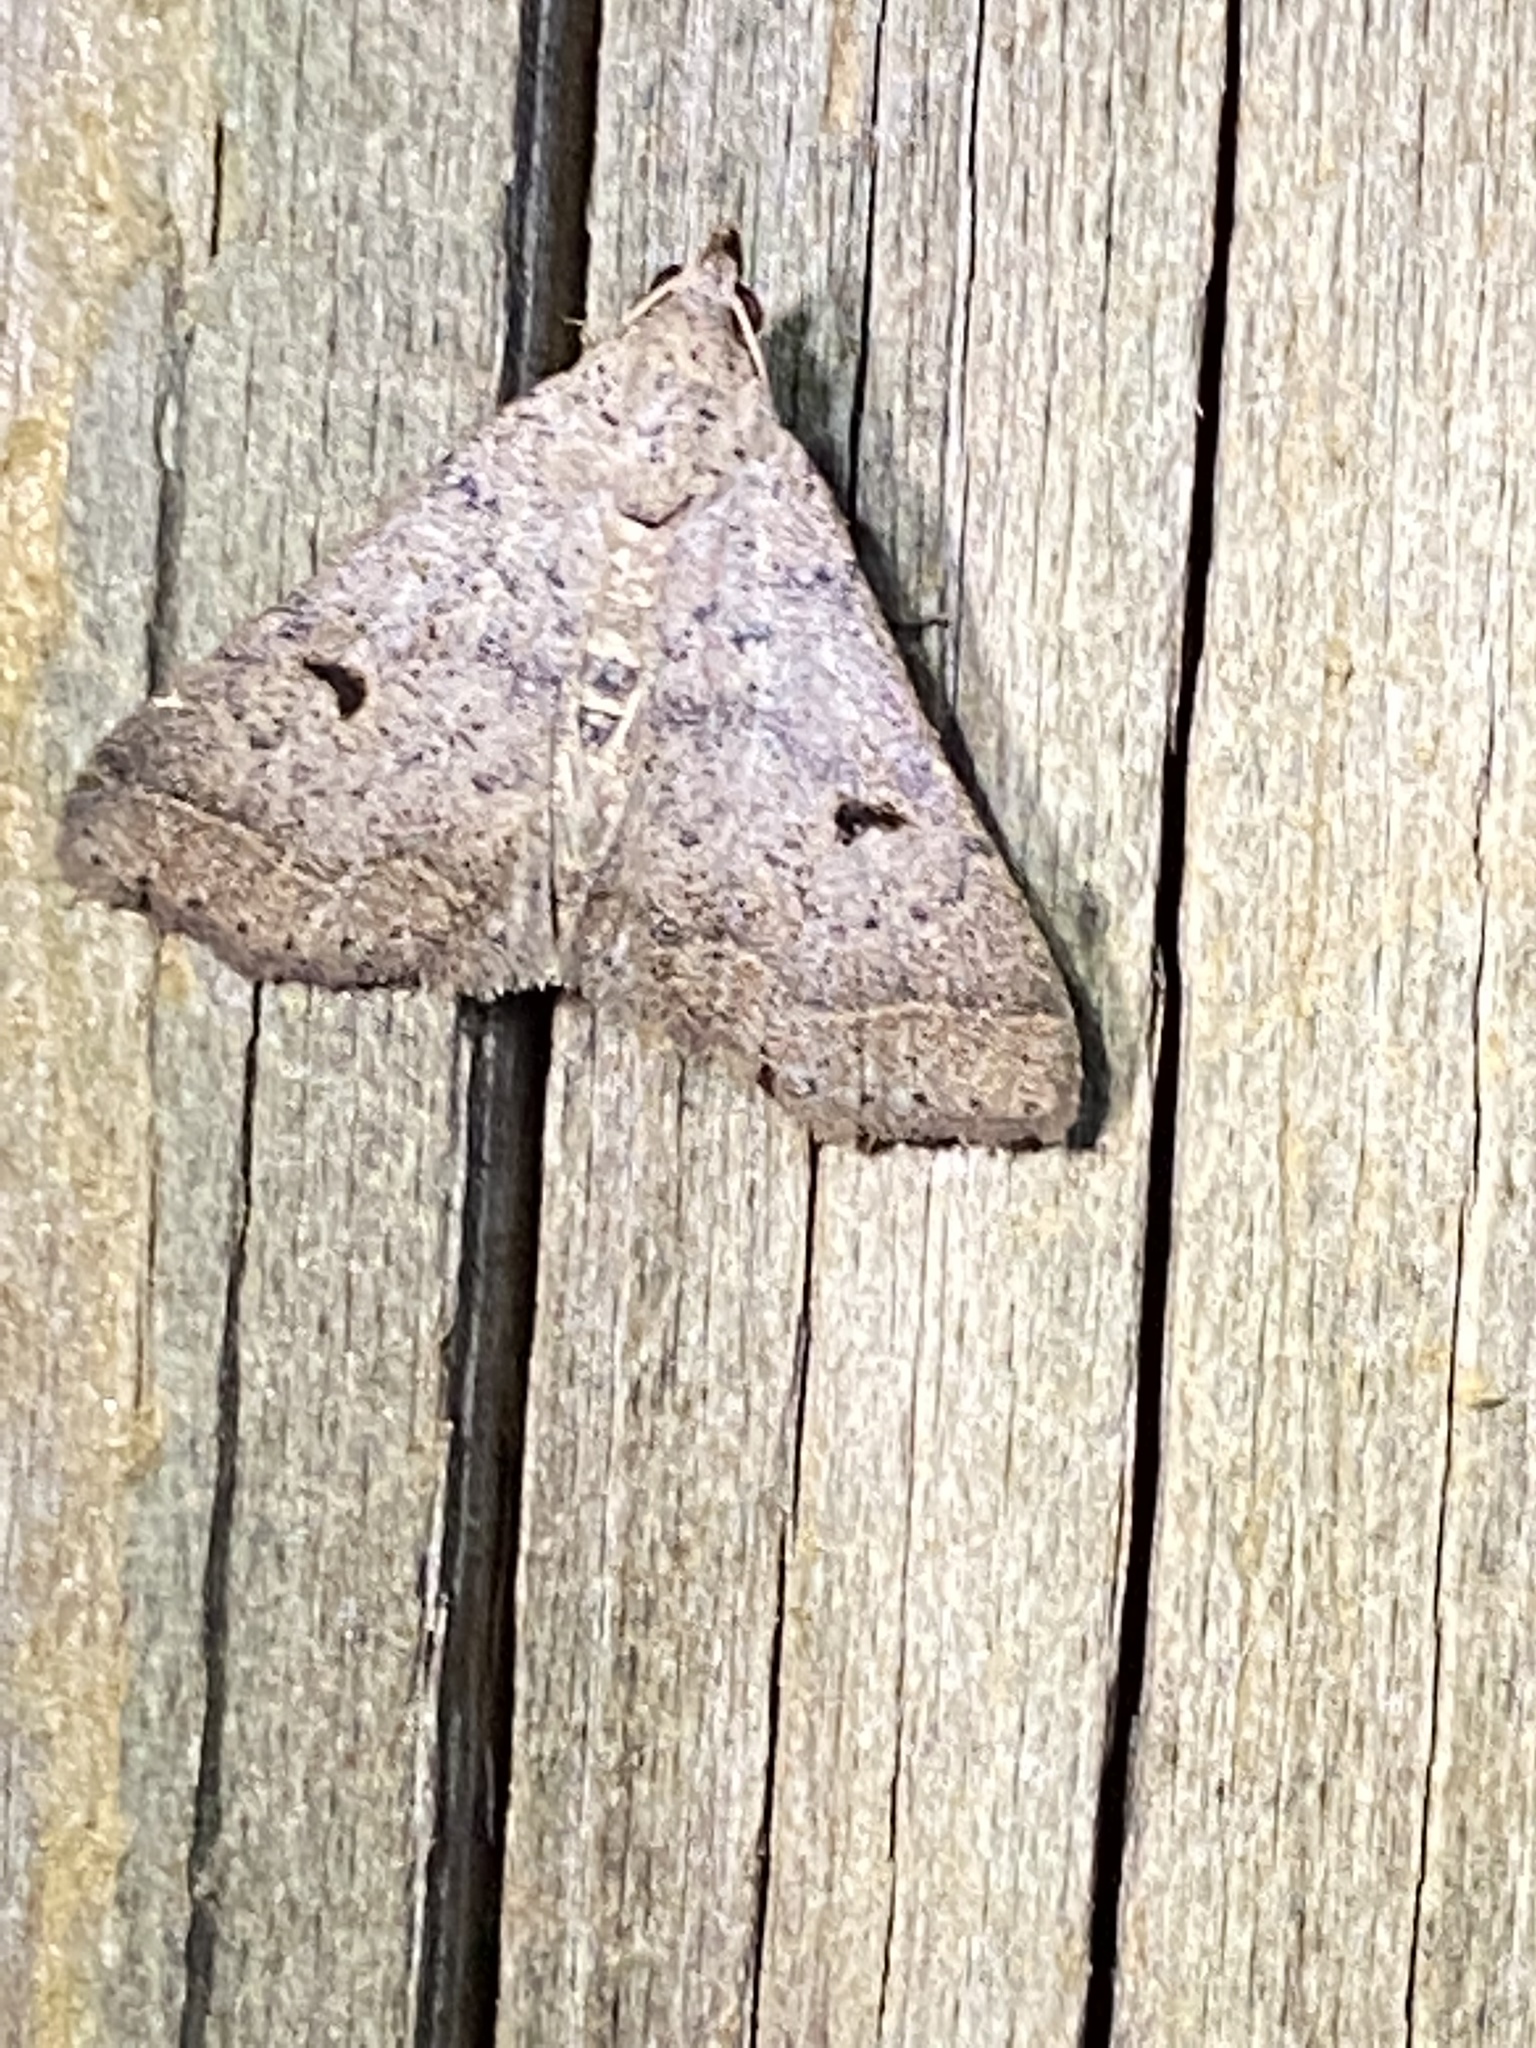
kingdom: Animalia
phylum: Arthropoda
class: Insecta
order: Lepidoptera
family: Erebidae
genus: Bleptina
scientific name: Bleptina caradrinalis
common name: Bent-winged owlet
